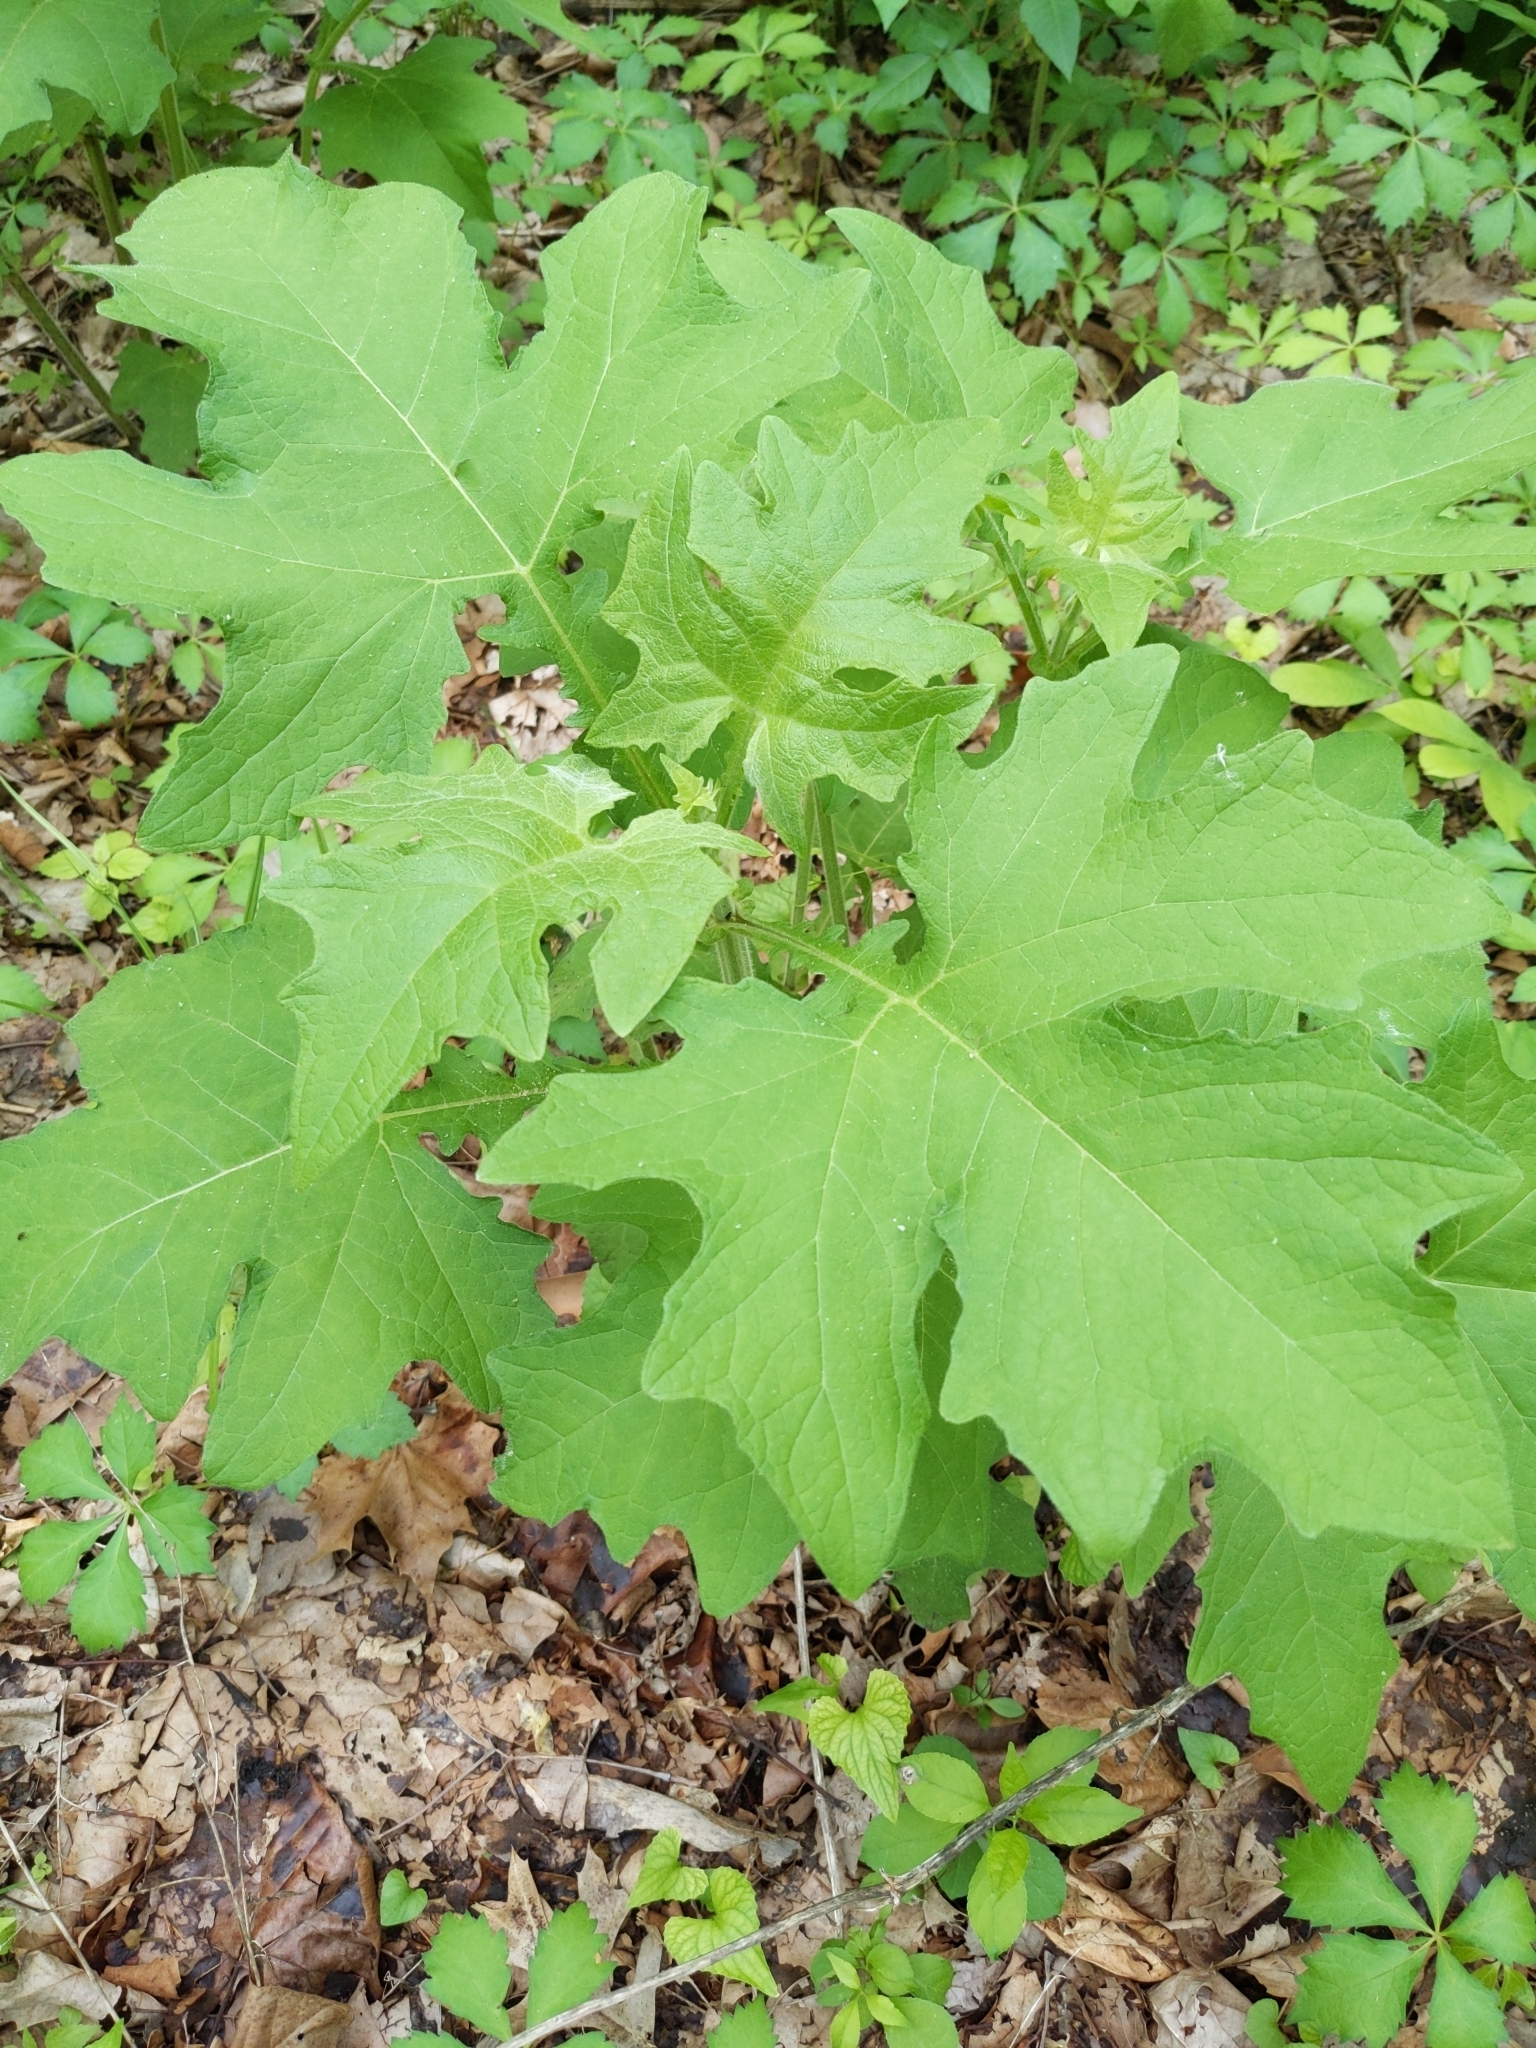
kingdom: Plantae
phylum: Tracheophyta
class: Magnoliopsida
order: Asterales
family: Asteraceae
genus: Smallanthus
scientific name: Smallanthus uvedalia
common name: Bear's-foot
